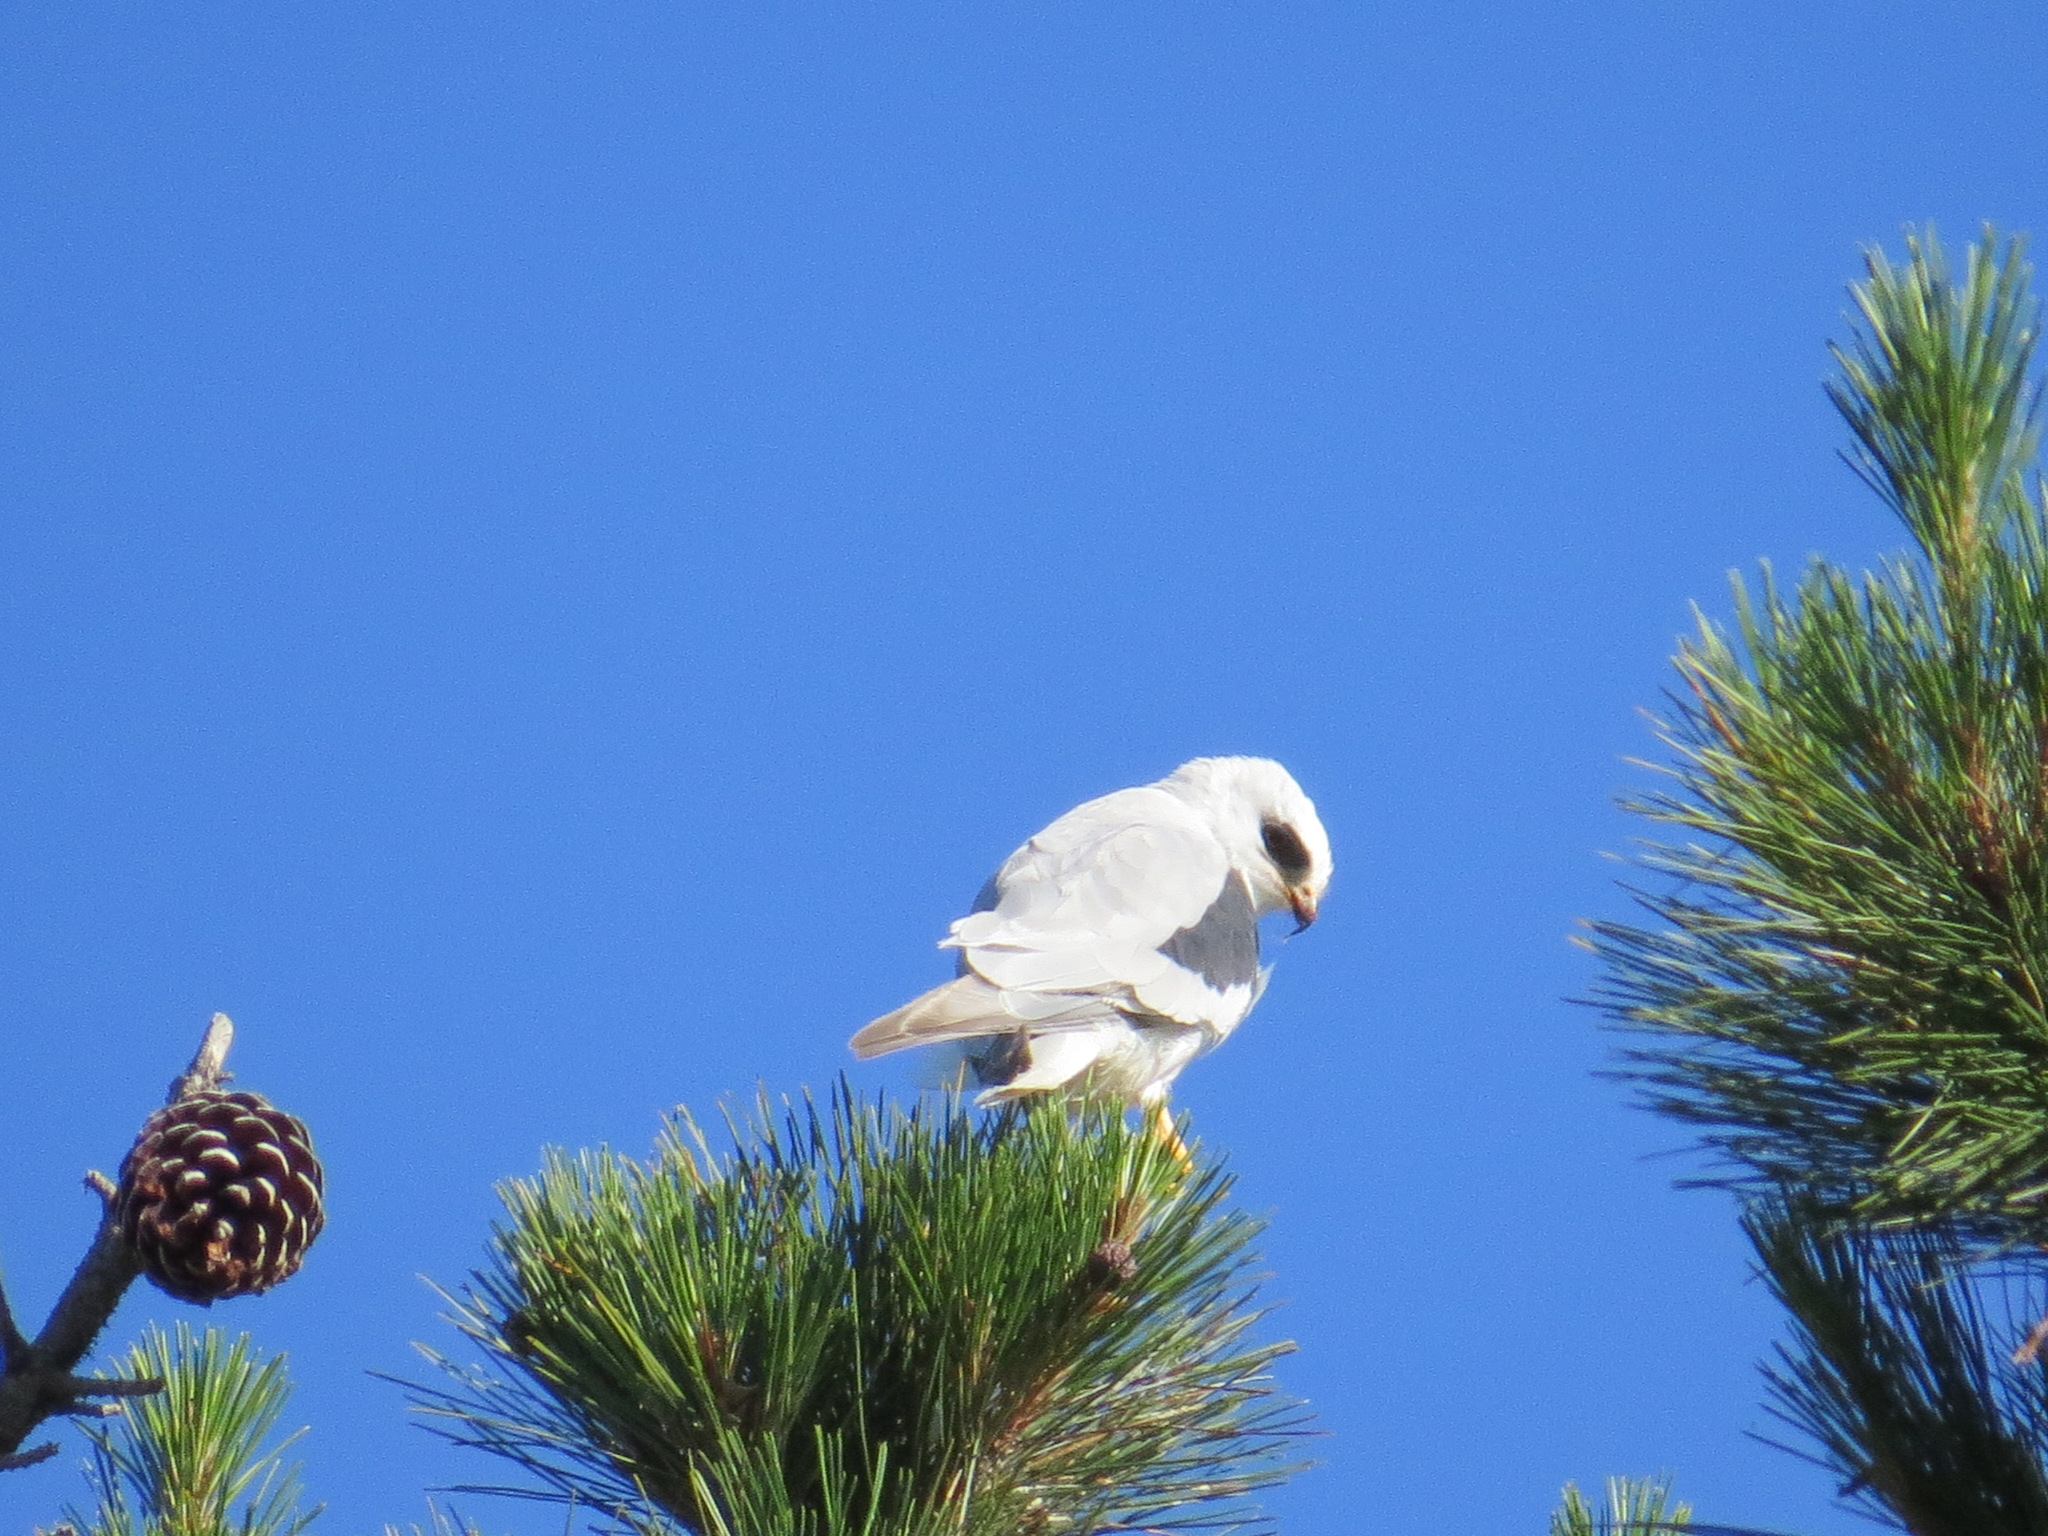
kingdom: Animalia
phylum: Chordata
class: Aves
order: Accipitriformes
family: Accipitridae
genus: Elanus
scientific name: Elanus leucurus
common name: White-tailed kite
